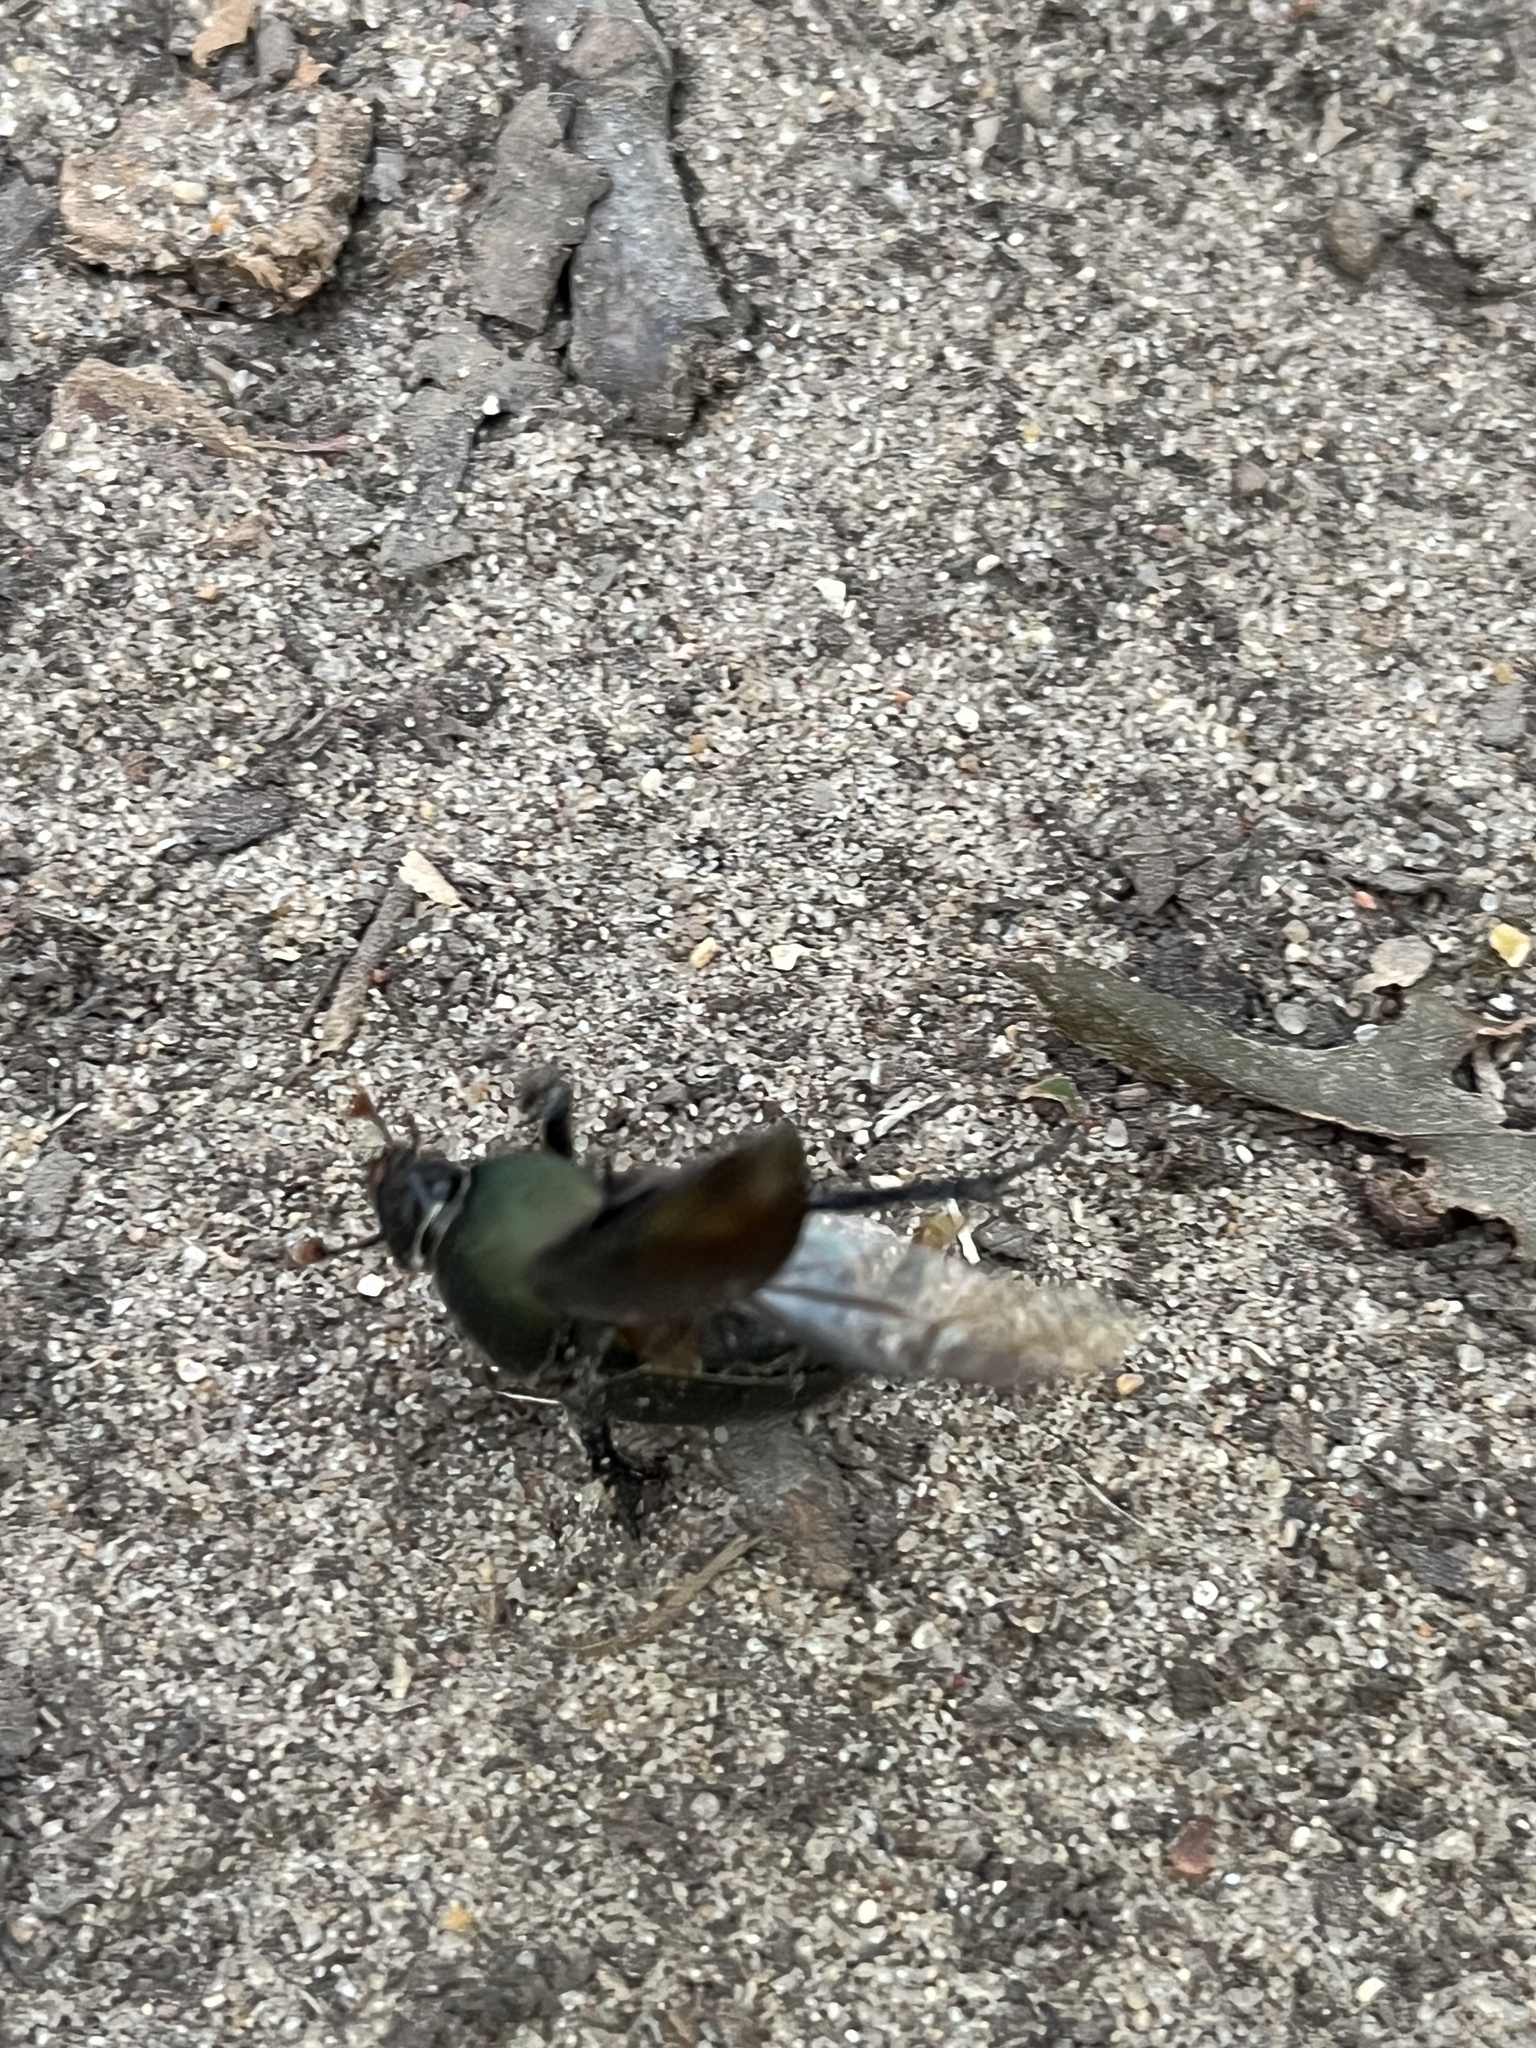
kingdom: Animalia
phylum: Arthropoda
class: Insecta
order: Coleoptera
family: Geotrupidae
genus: Geotrupes
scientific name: Geotrupes splendidus
